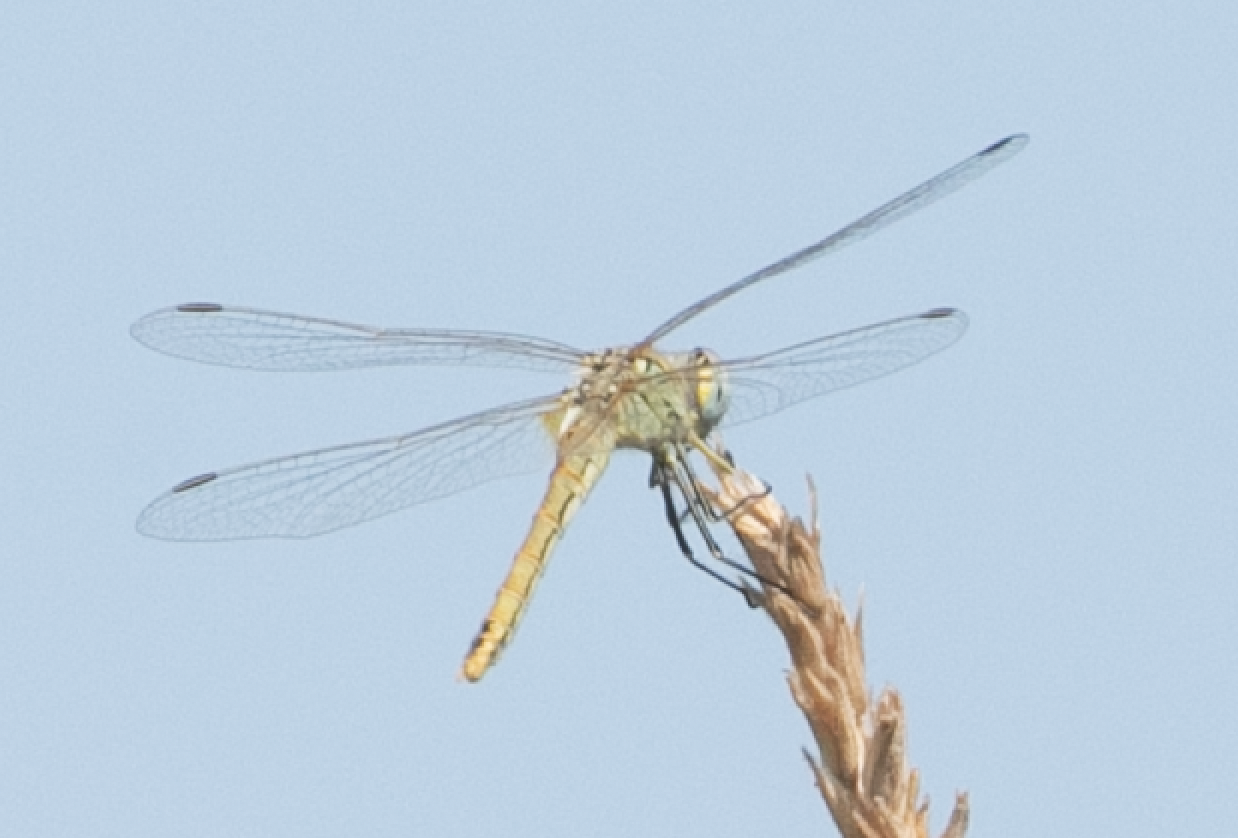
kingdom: Animalia
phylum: Arthropoda
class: Insecta
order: Odonata
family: Libellulidae
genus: Sympetrum
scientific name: Sympetrum fonscolombii
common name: Red-veined darter
